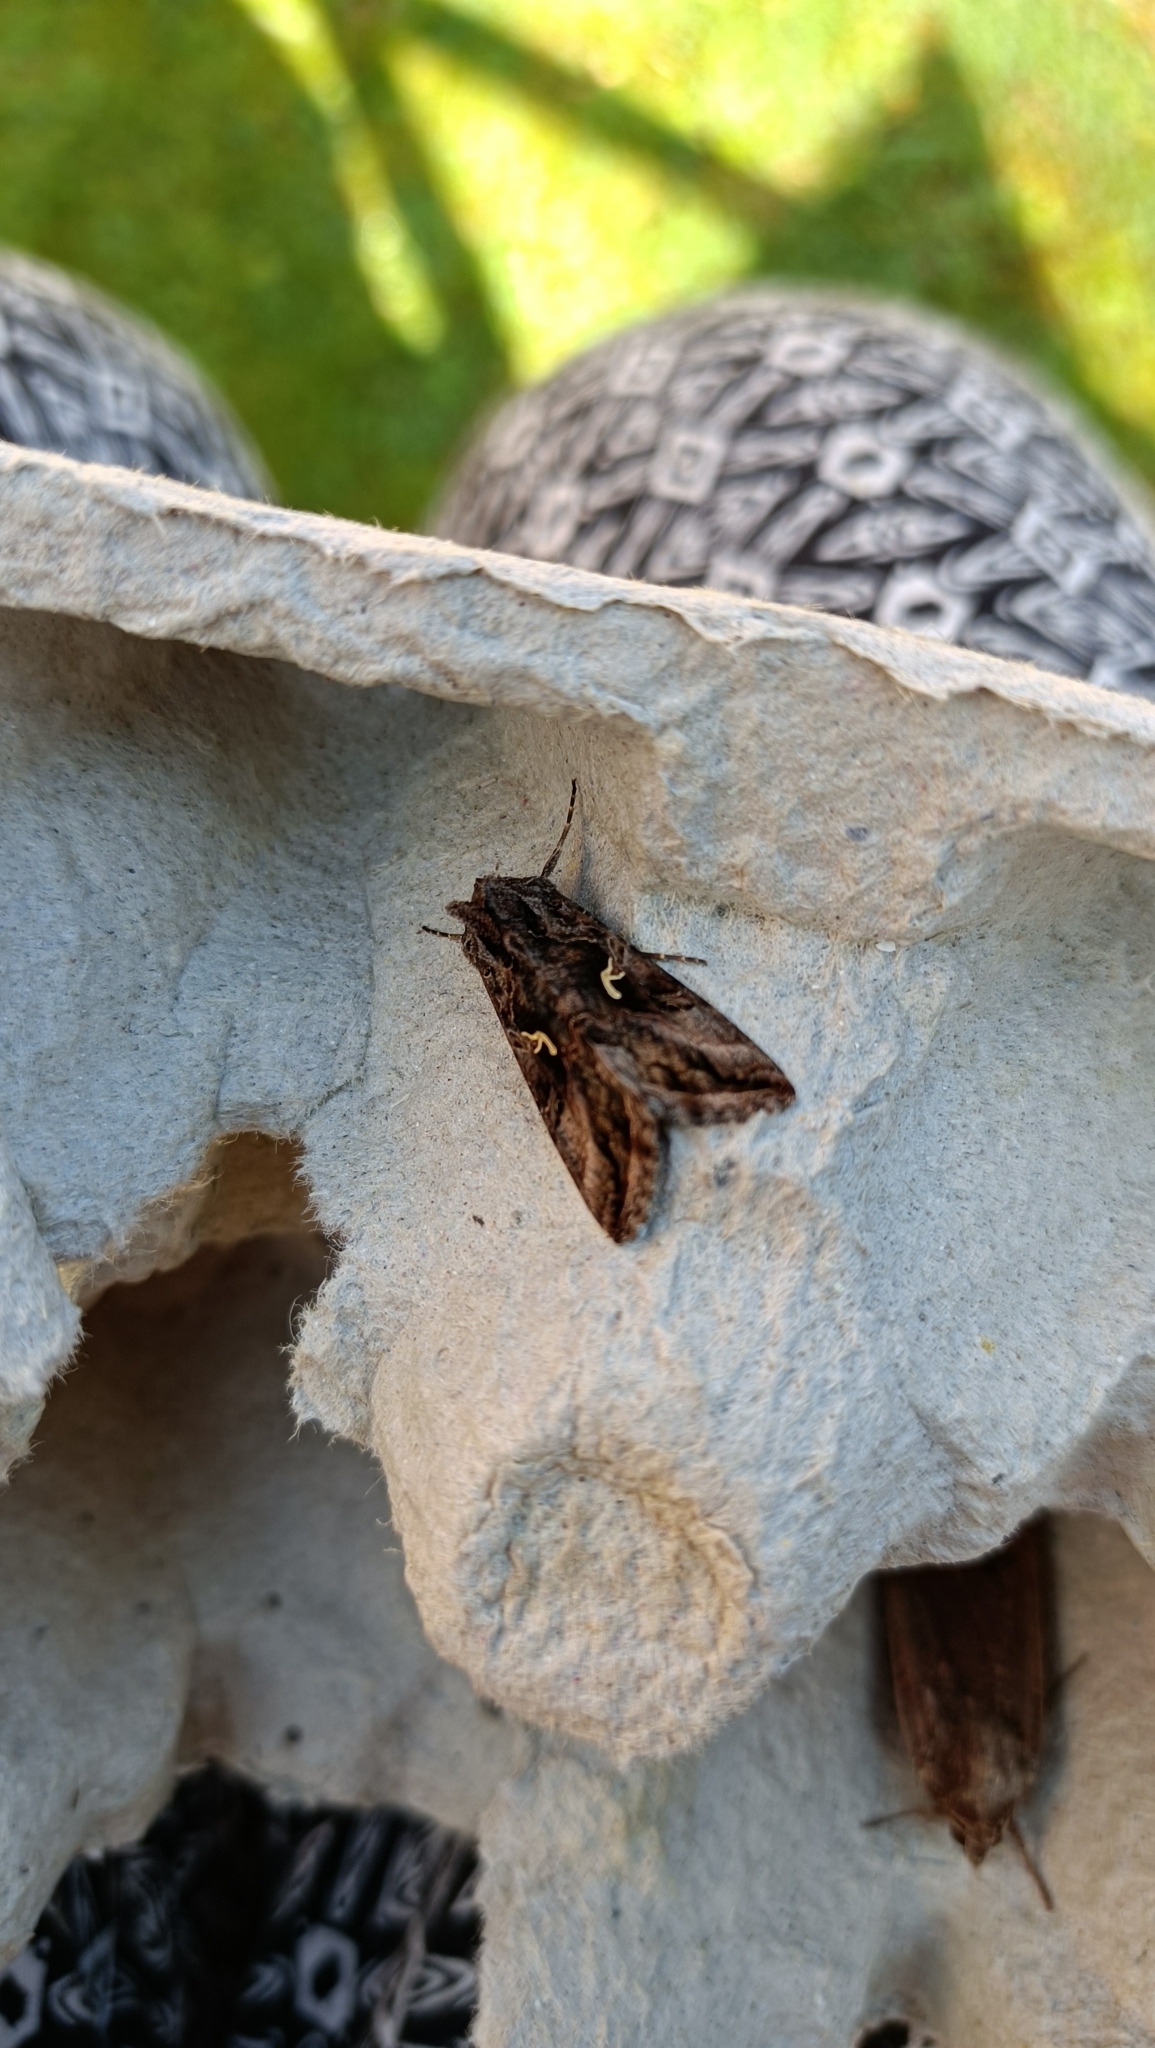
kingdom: Animalia
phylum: Arthropoda
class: Insecta
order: Lepidoptera
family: Noctuidae
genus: Autographa
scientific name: Autographa gamma
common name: Silver y
